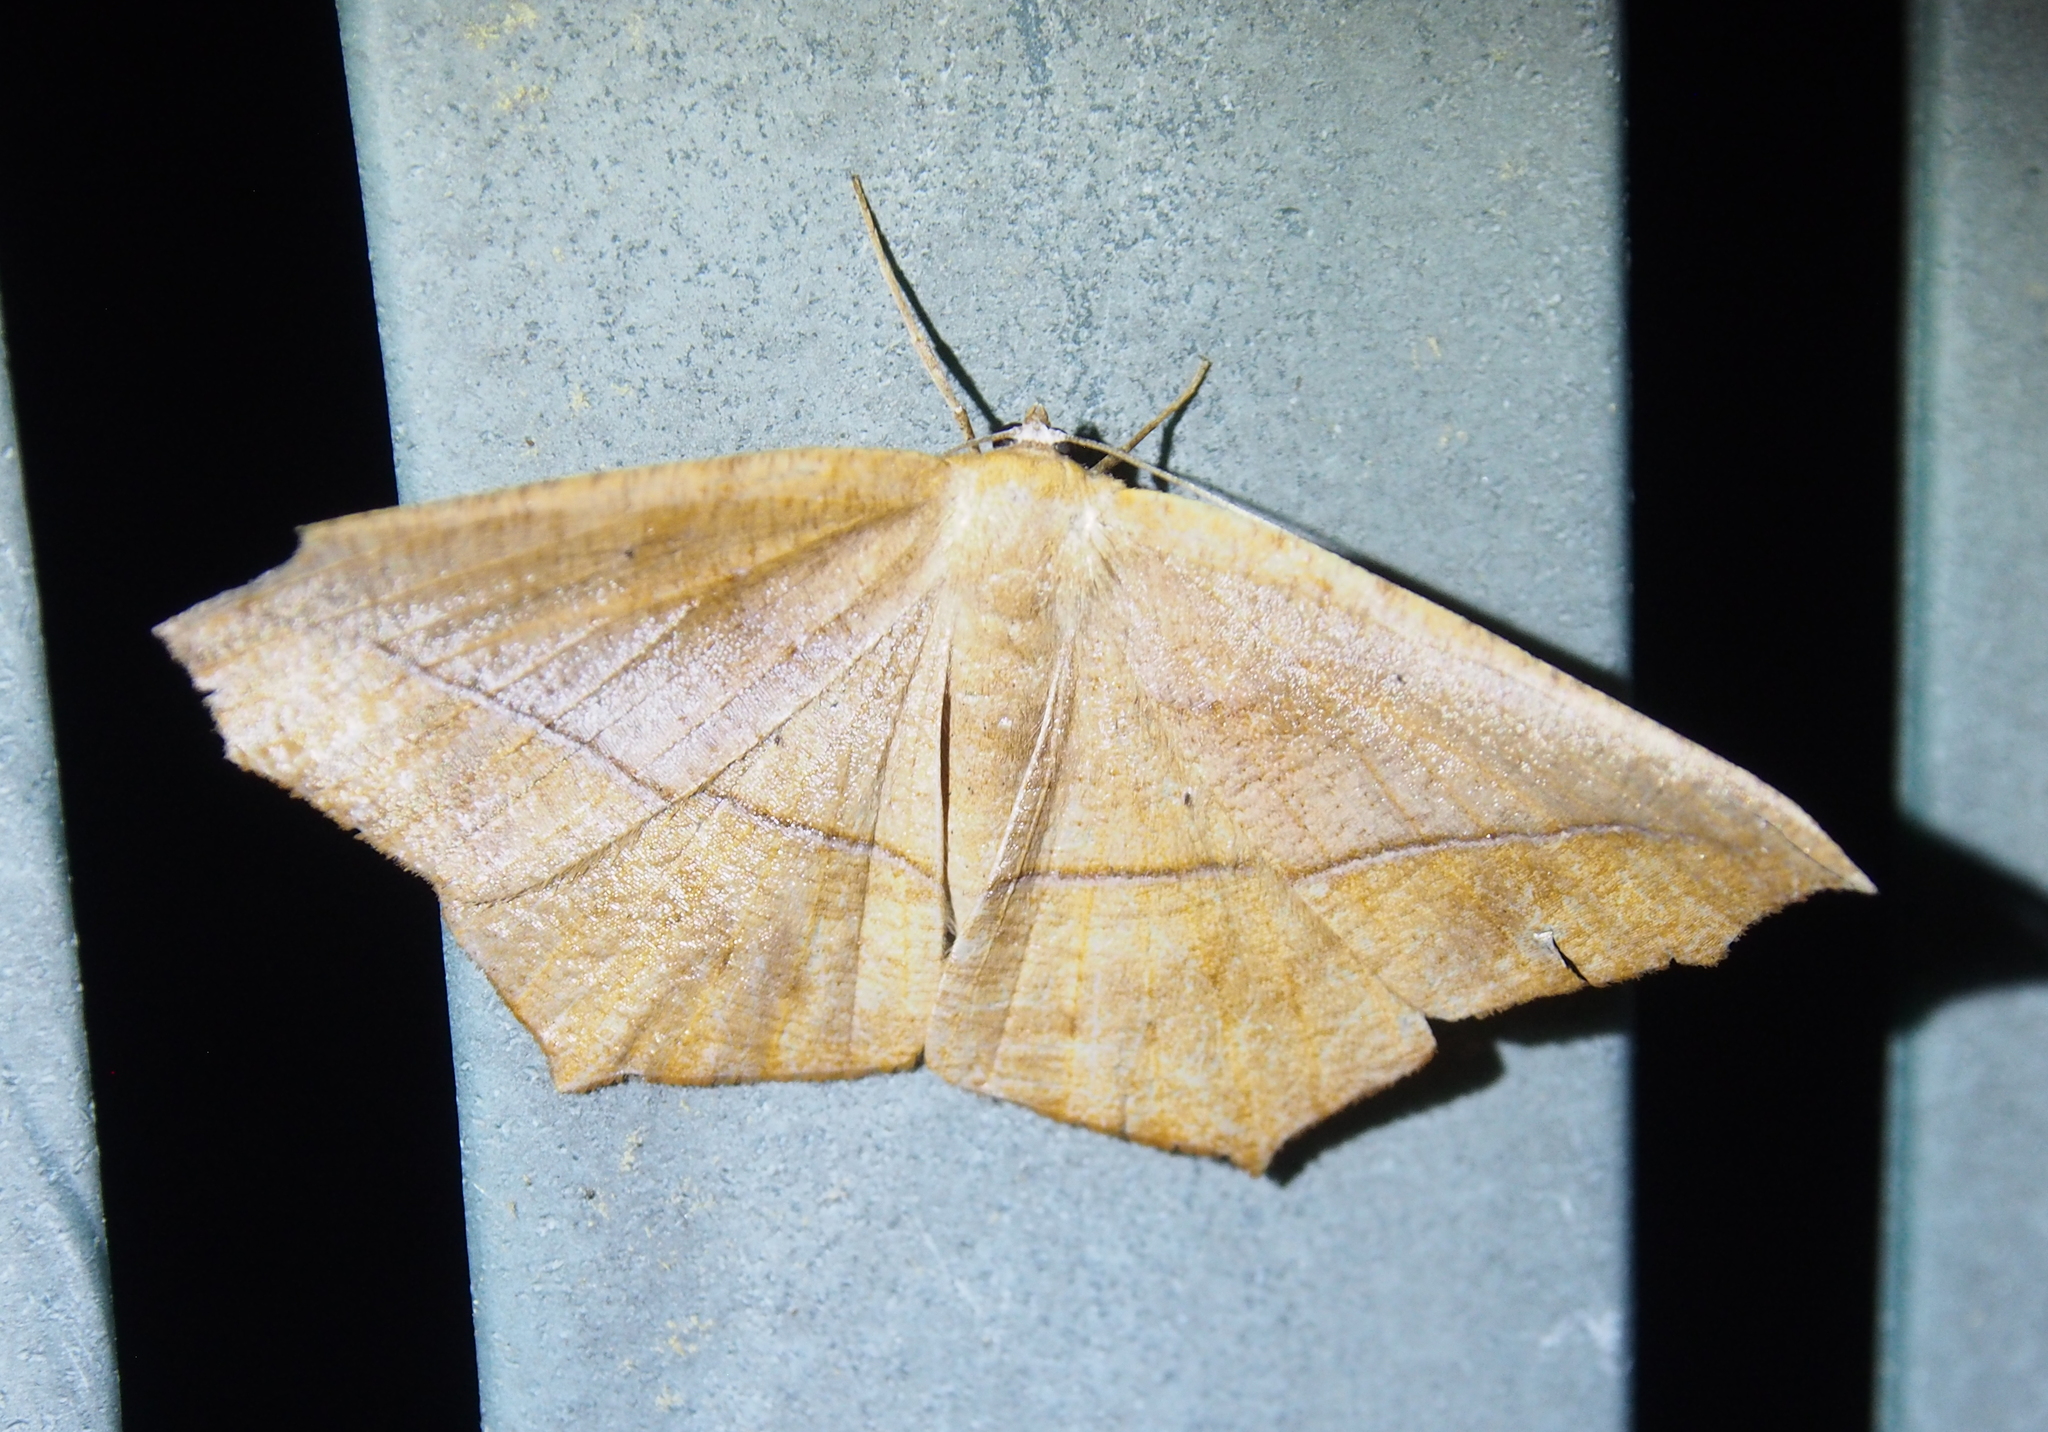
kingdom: Animalia
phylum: Arthropoda
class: Insecta
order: Lepidoptera
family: Geometridae
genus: Prochoerodes
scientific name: Prochoerodes lineola
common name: Large maple spanworm
